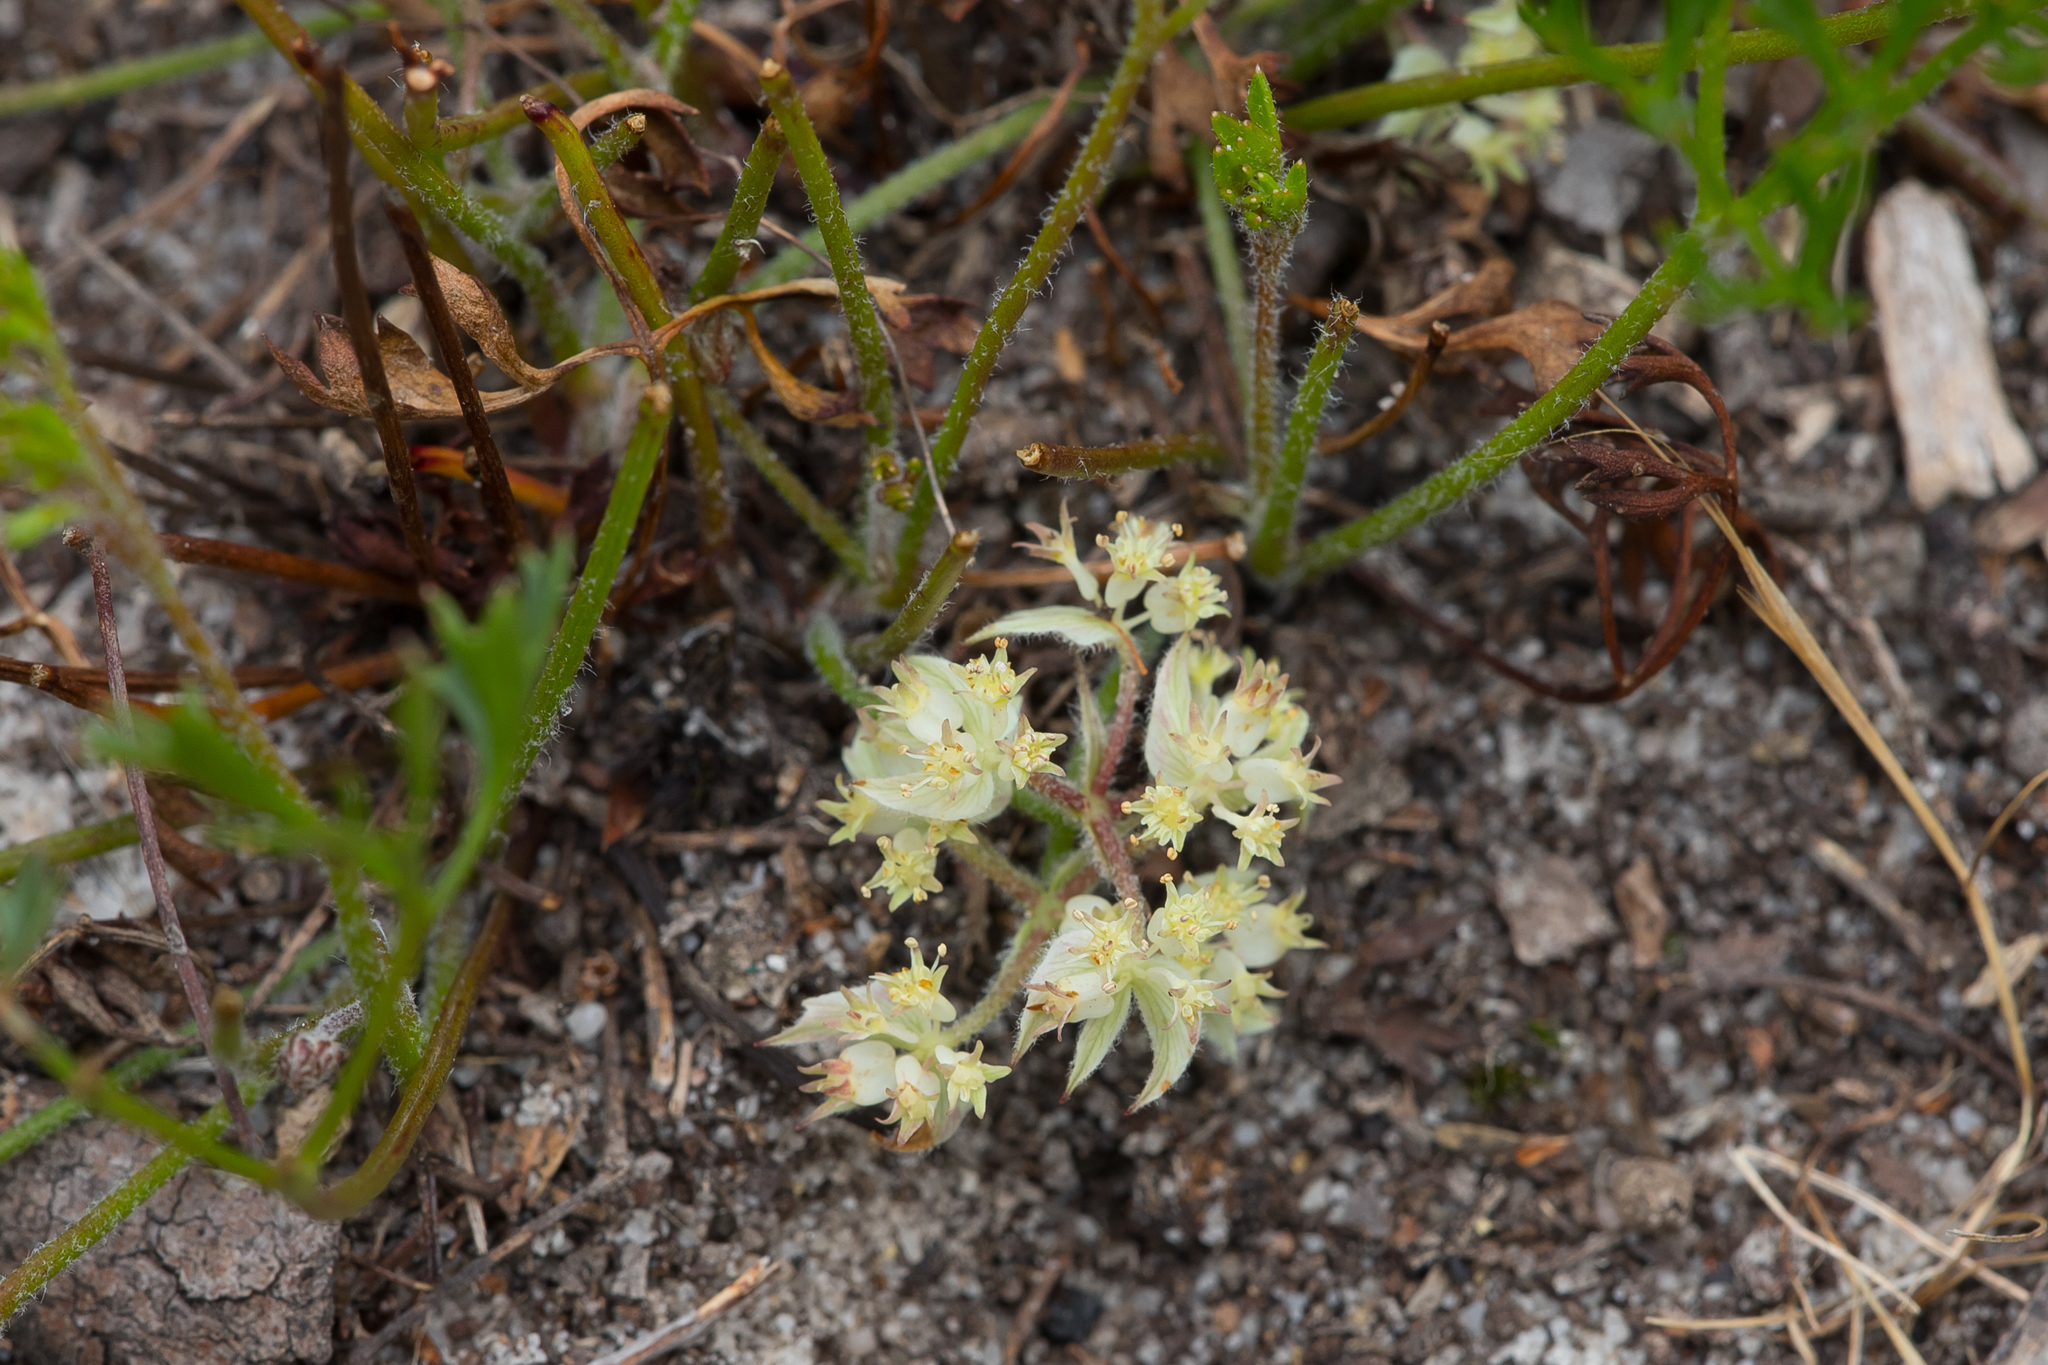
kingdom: Plantae
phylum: Tracheophyta
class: Magnoliopsida
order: Apiales
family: Apiaceae
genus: Xanthosia
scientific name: Xanthosia leiophylla
